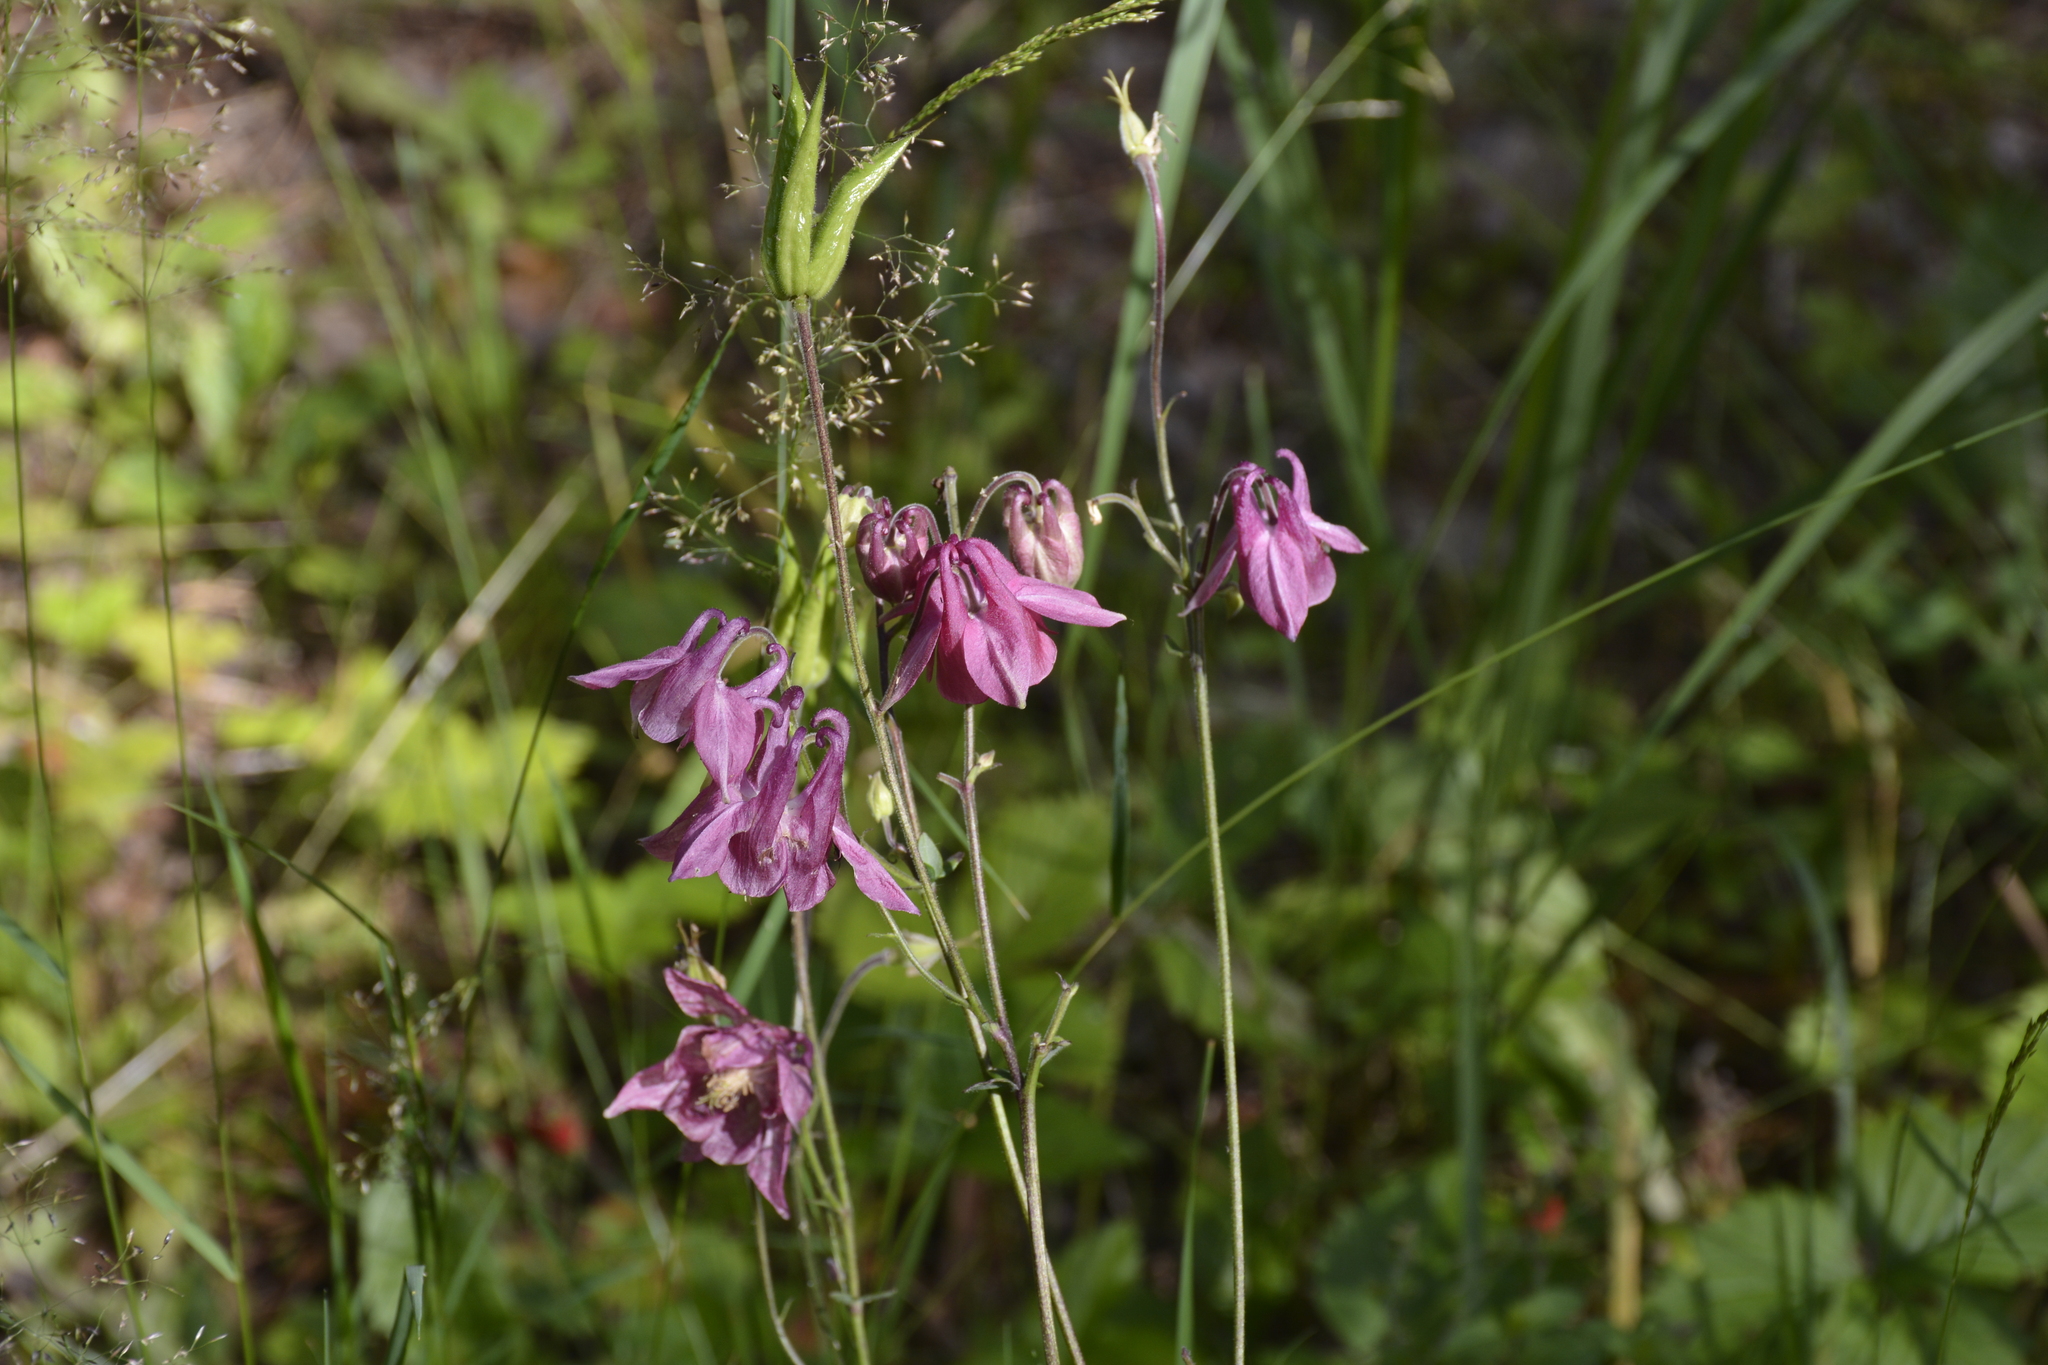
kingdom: Plantae
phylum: Tracheophyta
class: Magnoliopsida
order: Ranunculales
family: Ranunculaceae
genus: Aquilegia
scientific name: Aquilegia vulgaris
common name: Columbine
